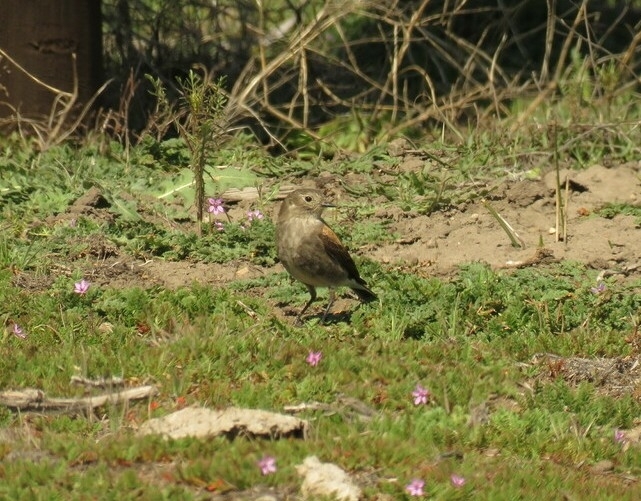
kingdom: Animalia
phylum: Chordata
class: Aves
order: Passeriformes
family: Tyrannidae
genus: Lessonia
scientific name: Lessonia rufa
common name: Austral negrito
